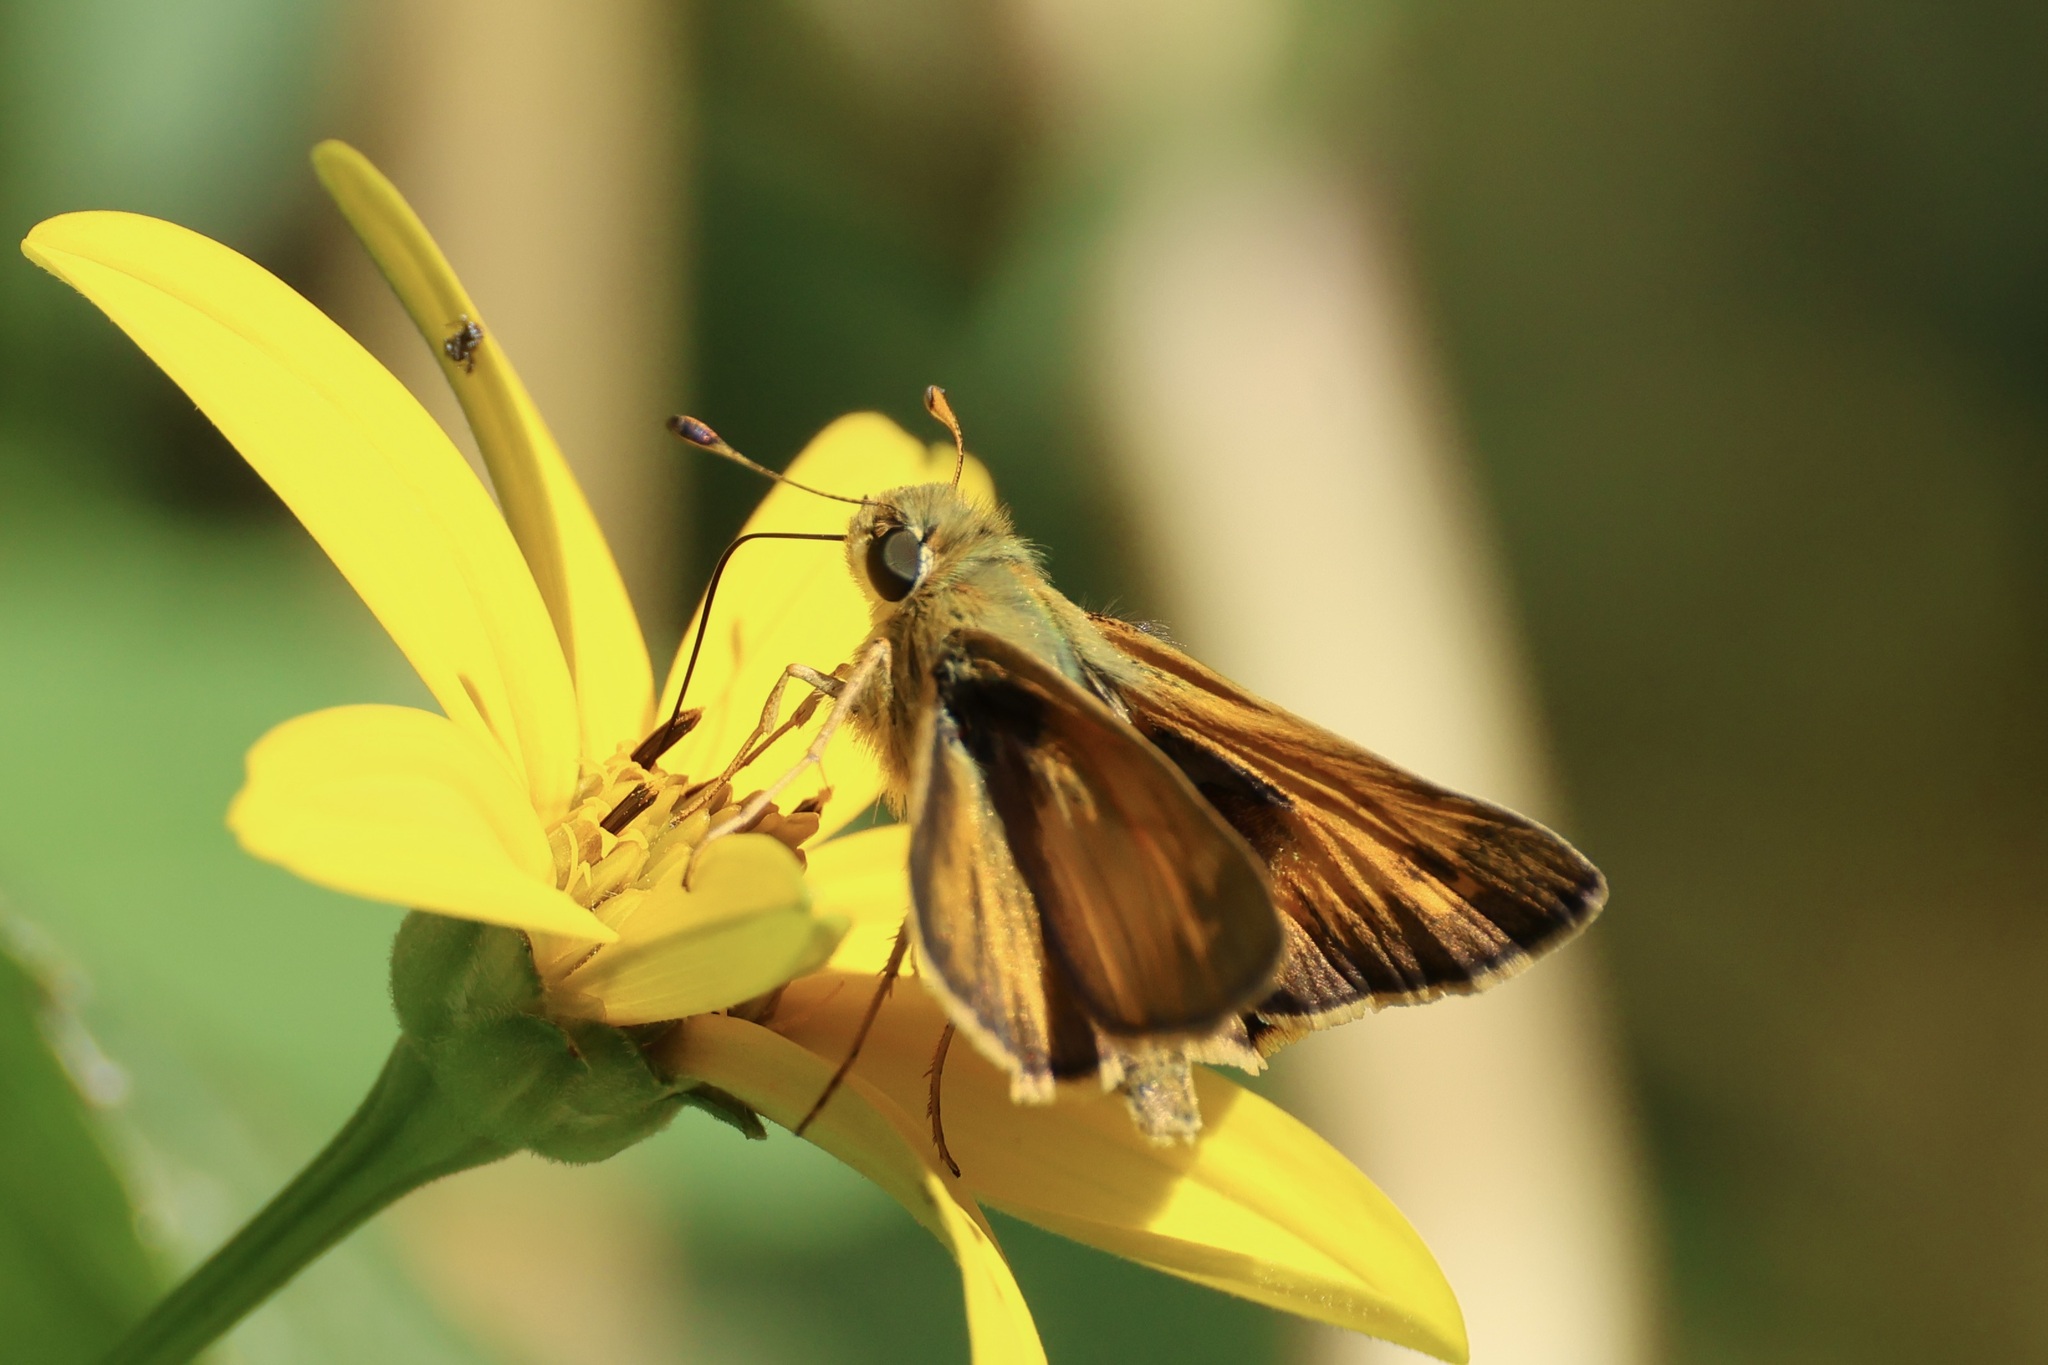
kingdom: Animalia
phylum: Arthropoda
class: Insecta
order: Lepidoptera
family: Hesperiidae
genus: Atalopedes
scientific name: Atalopedes
